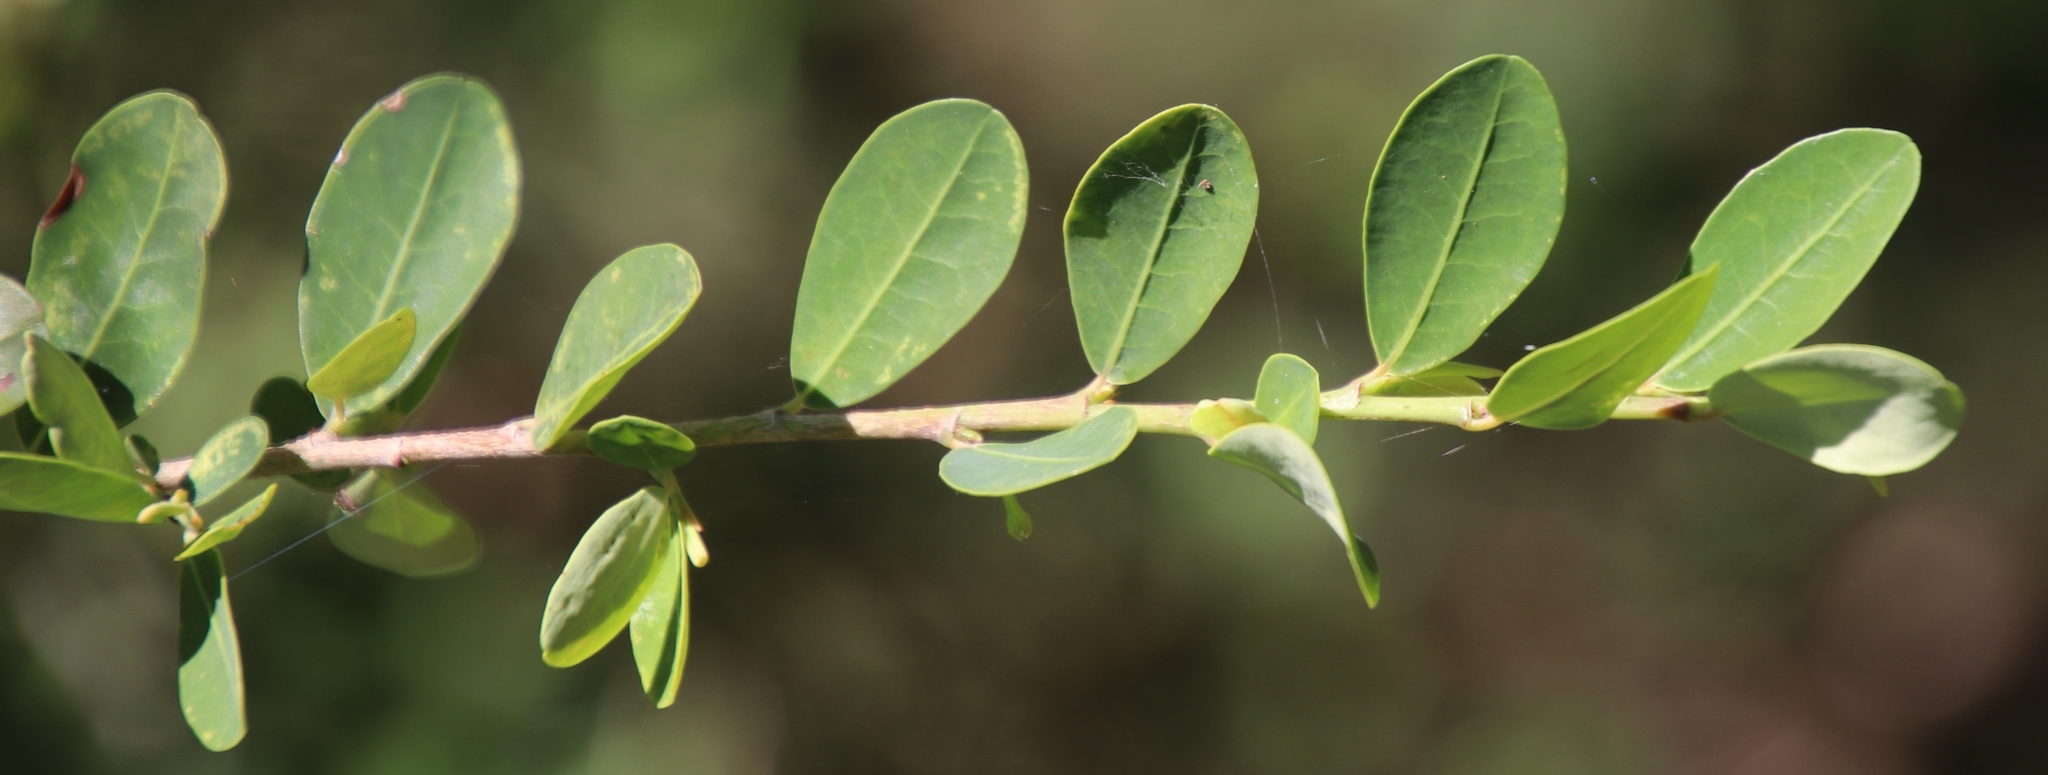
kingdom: Plantae
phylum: Tracheophyta
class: Magnoliopsida
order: Malpighiales
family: Phyllanthaceae
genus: Phyllanthus
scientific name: Phyllanthus reticulatus
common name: Potato bush
